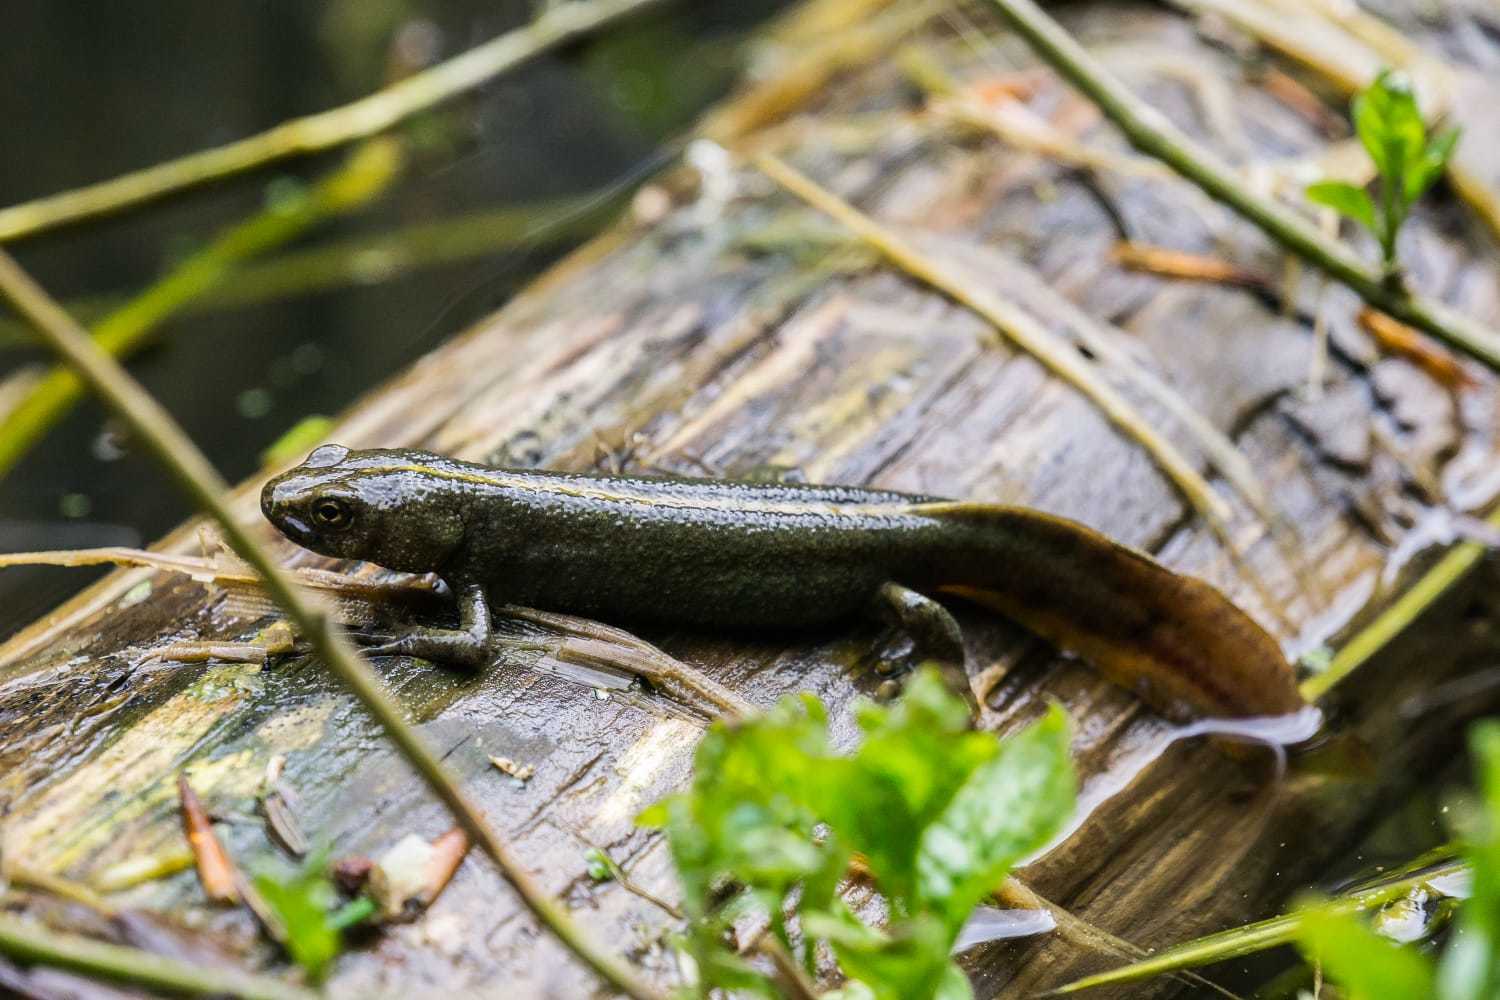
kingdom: Animalia
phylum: Chordata
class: Amphibia
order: Caudata
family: Salamandridae
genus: Triturus
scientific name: Triturus carnifex
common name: Italian crested newt
